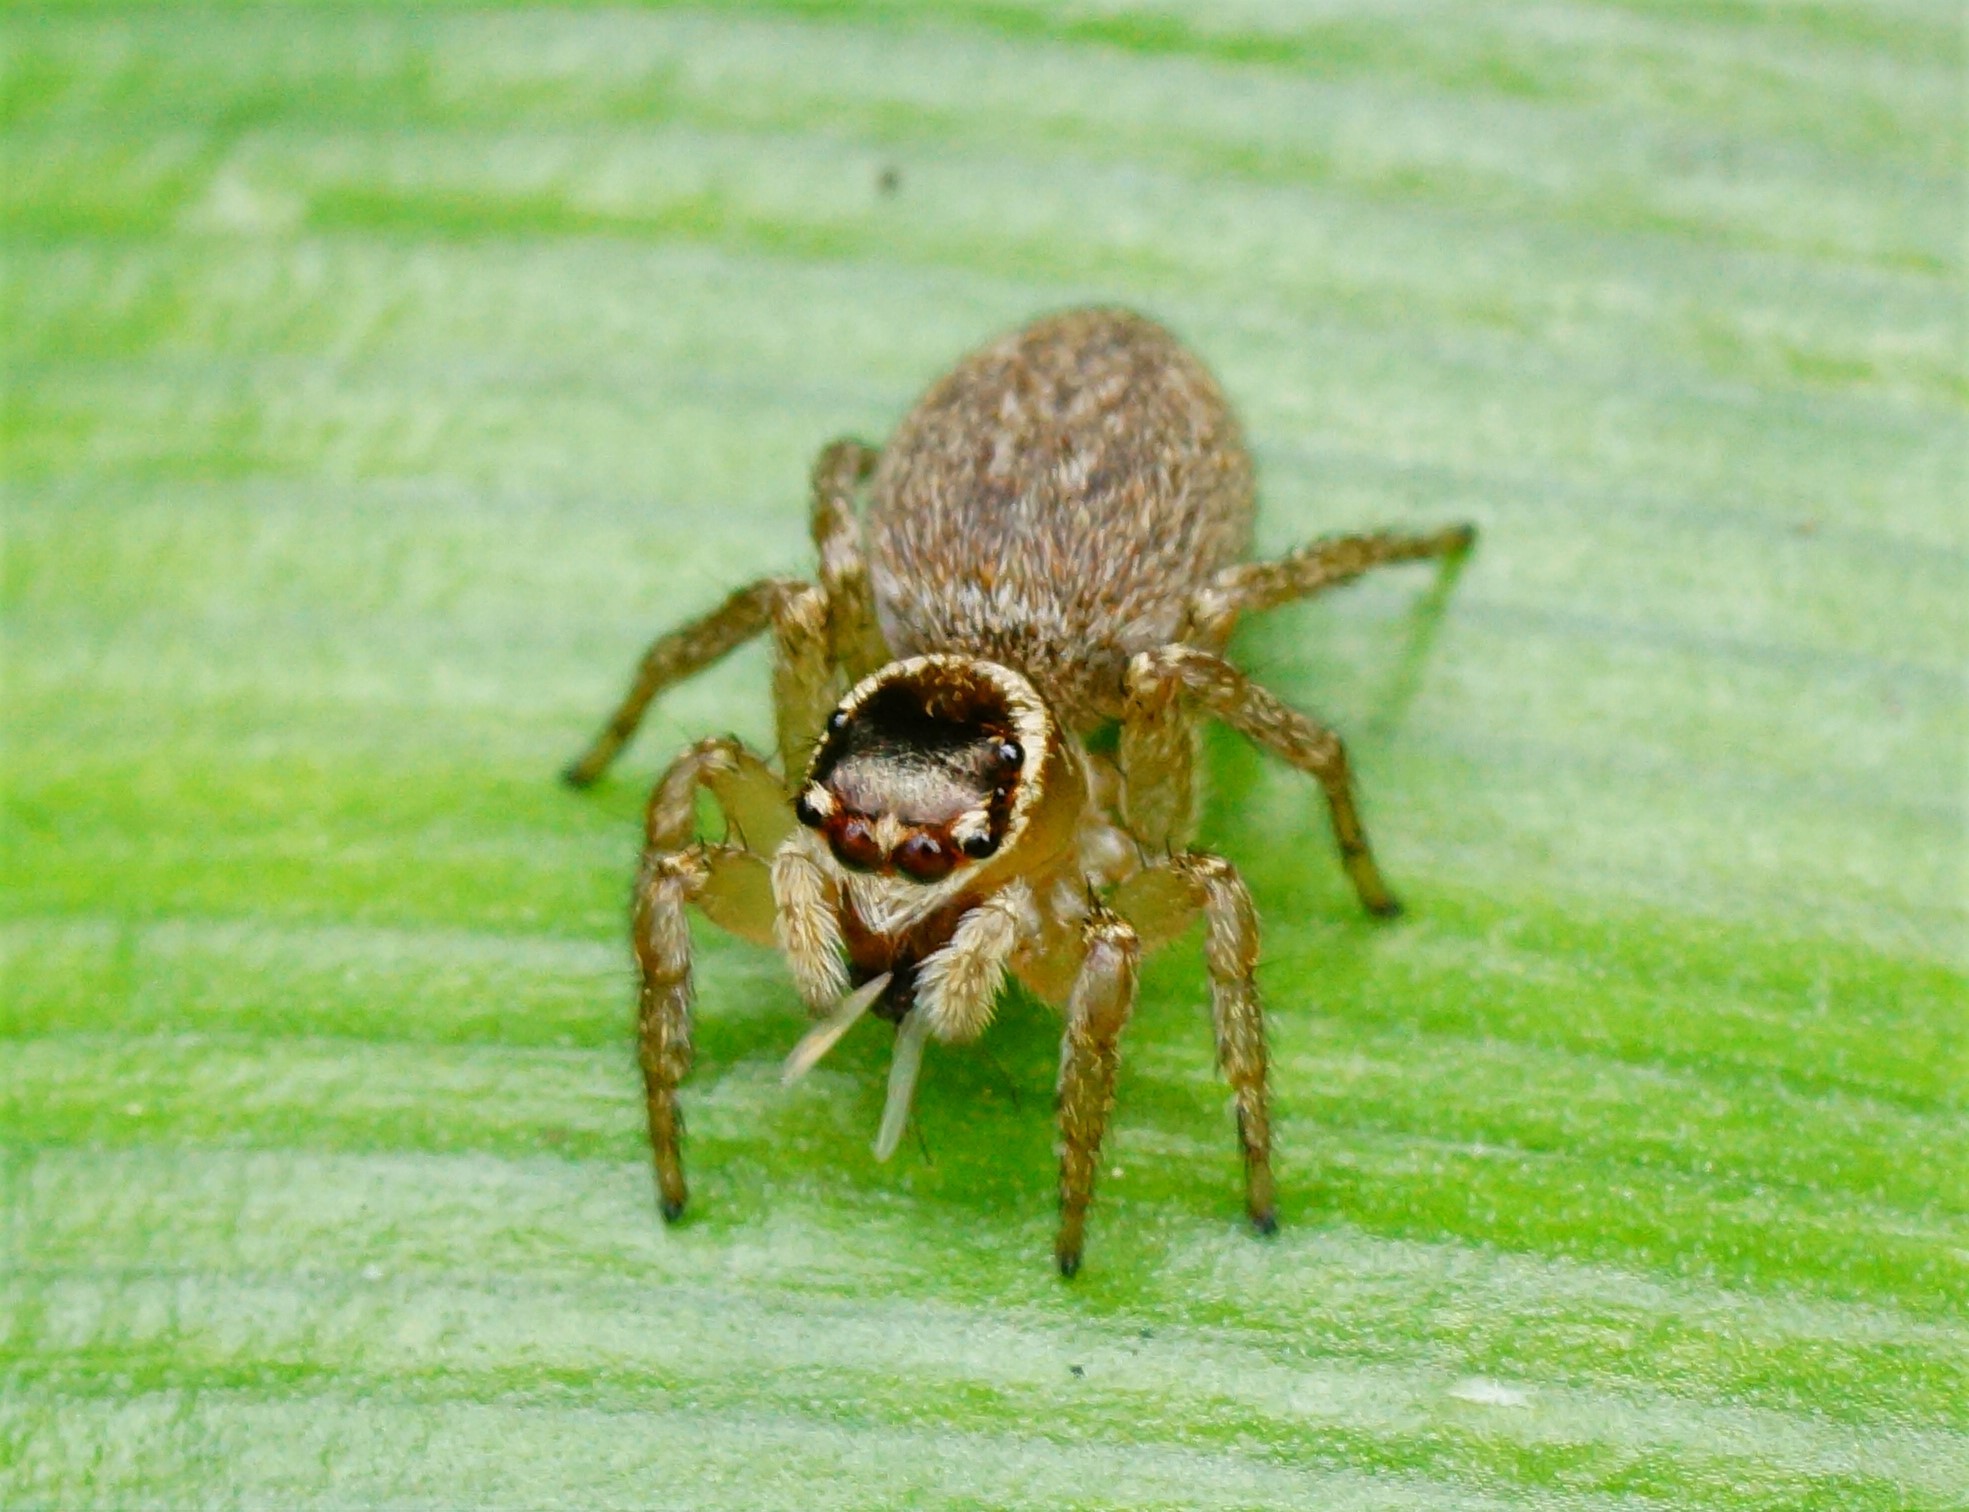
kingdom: Animalia
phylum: Arthropoda
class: Arachnida
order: Araneae
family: Salticidae
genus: Maratus
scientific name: Maratus griseus
